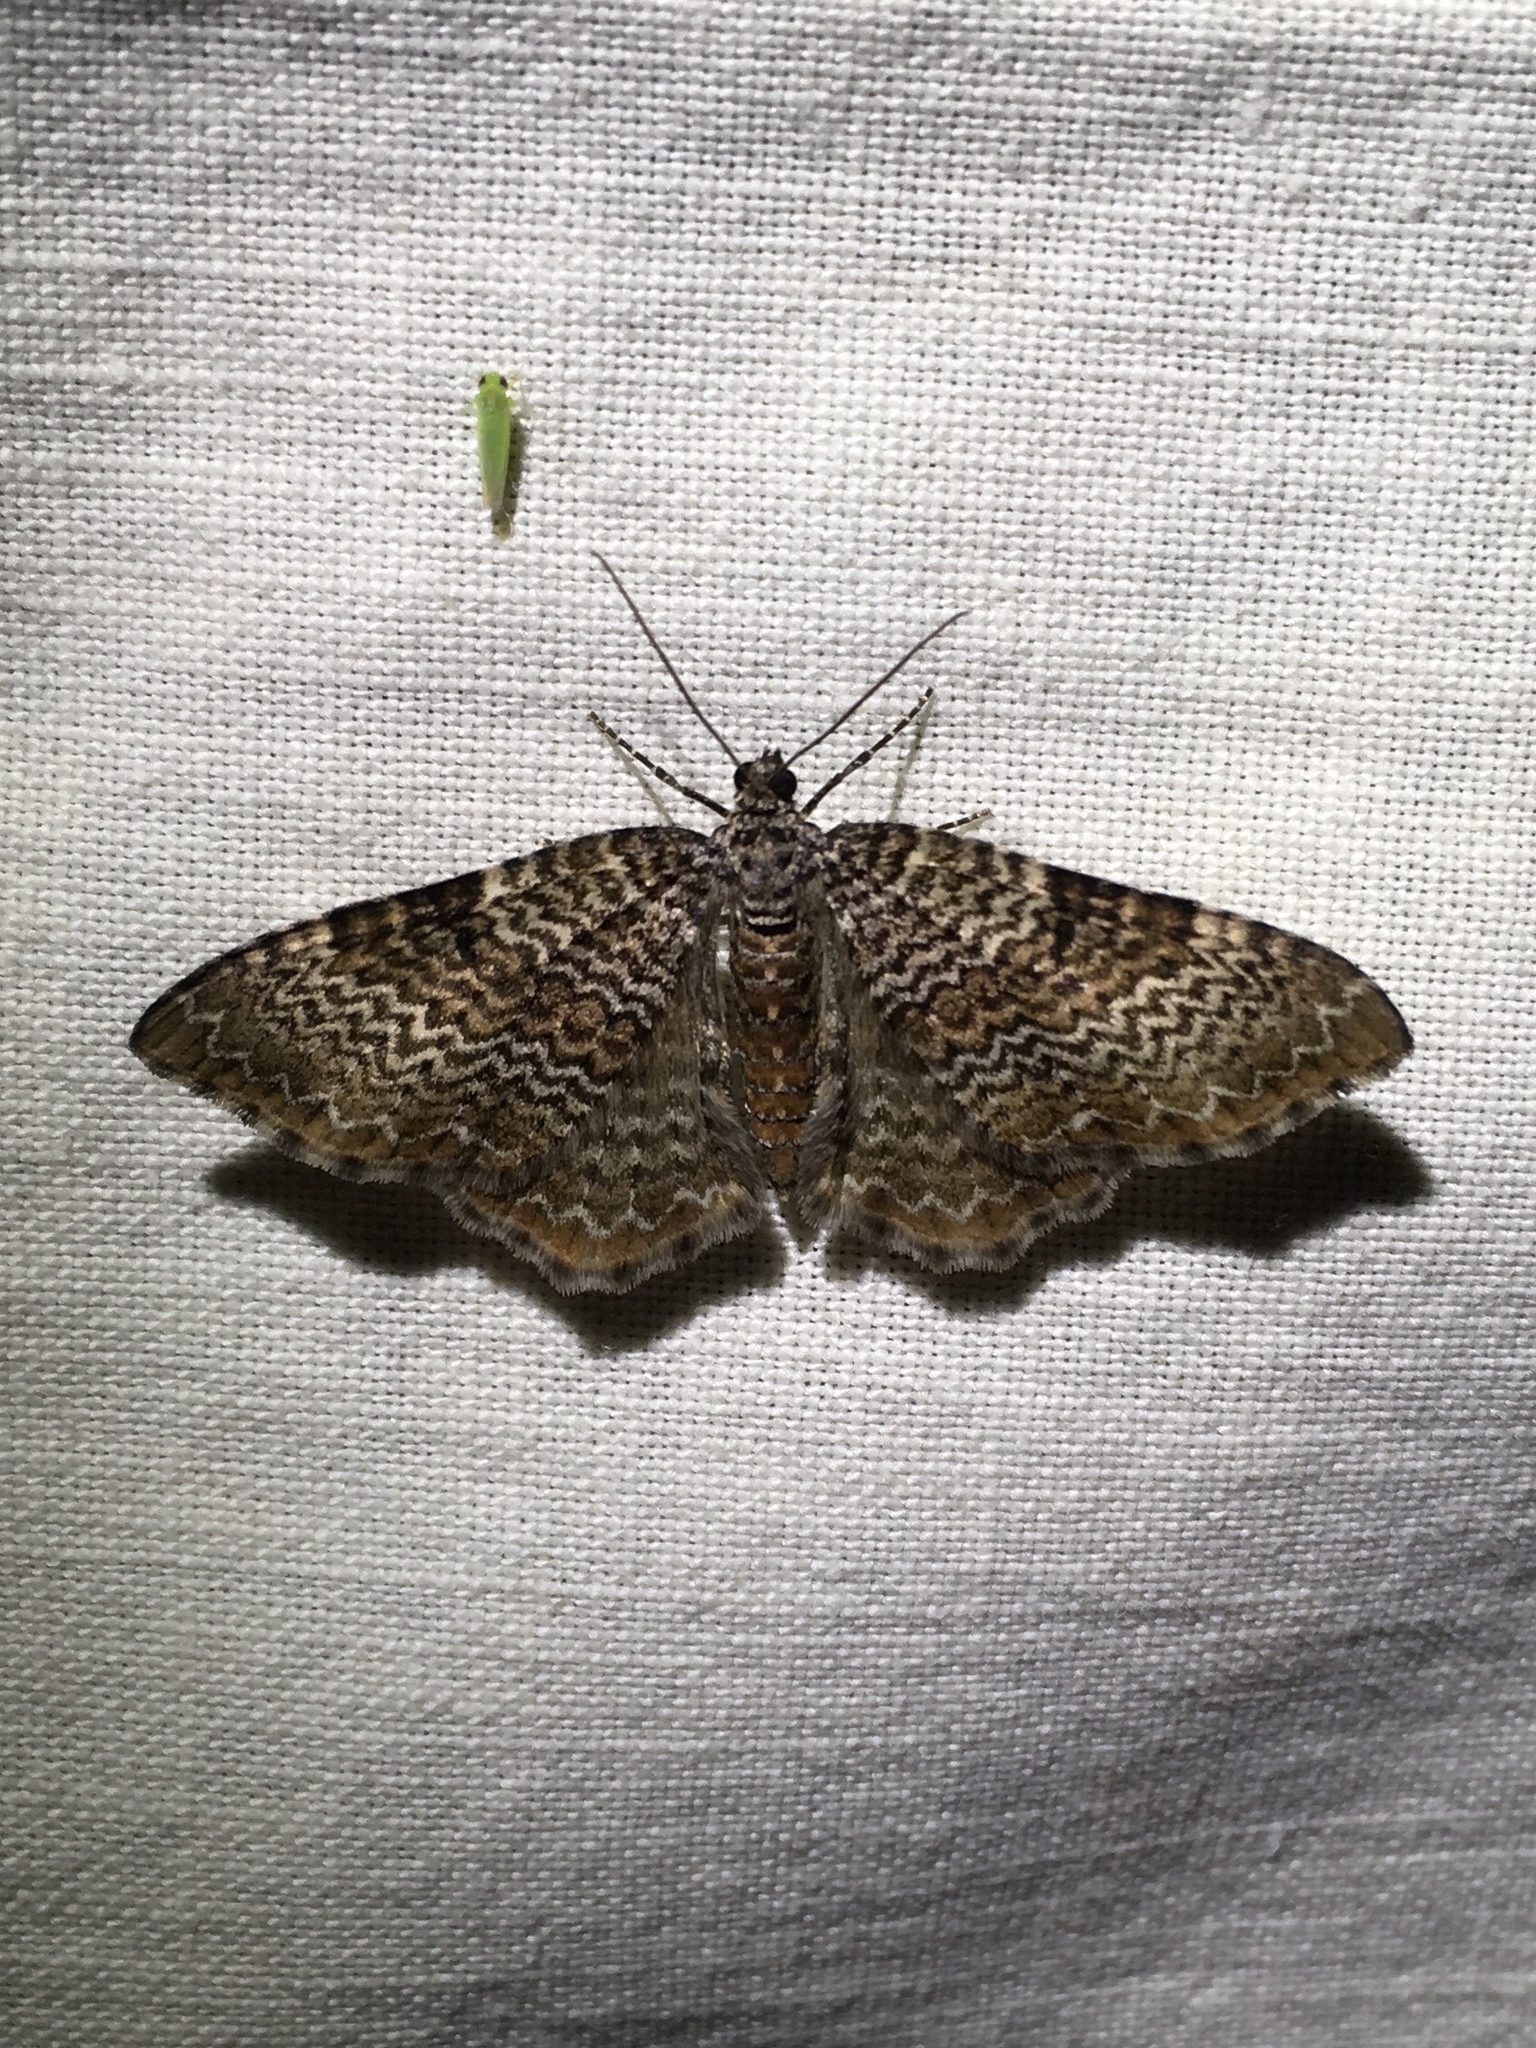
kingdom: Animalia
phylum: Arthropoda
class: Insecta
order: Lepidoptera
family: Geometridae
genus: Rheumaptera
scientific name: Rheumaptera prunivorata
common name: Cherry scallop shell moth
